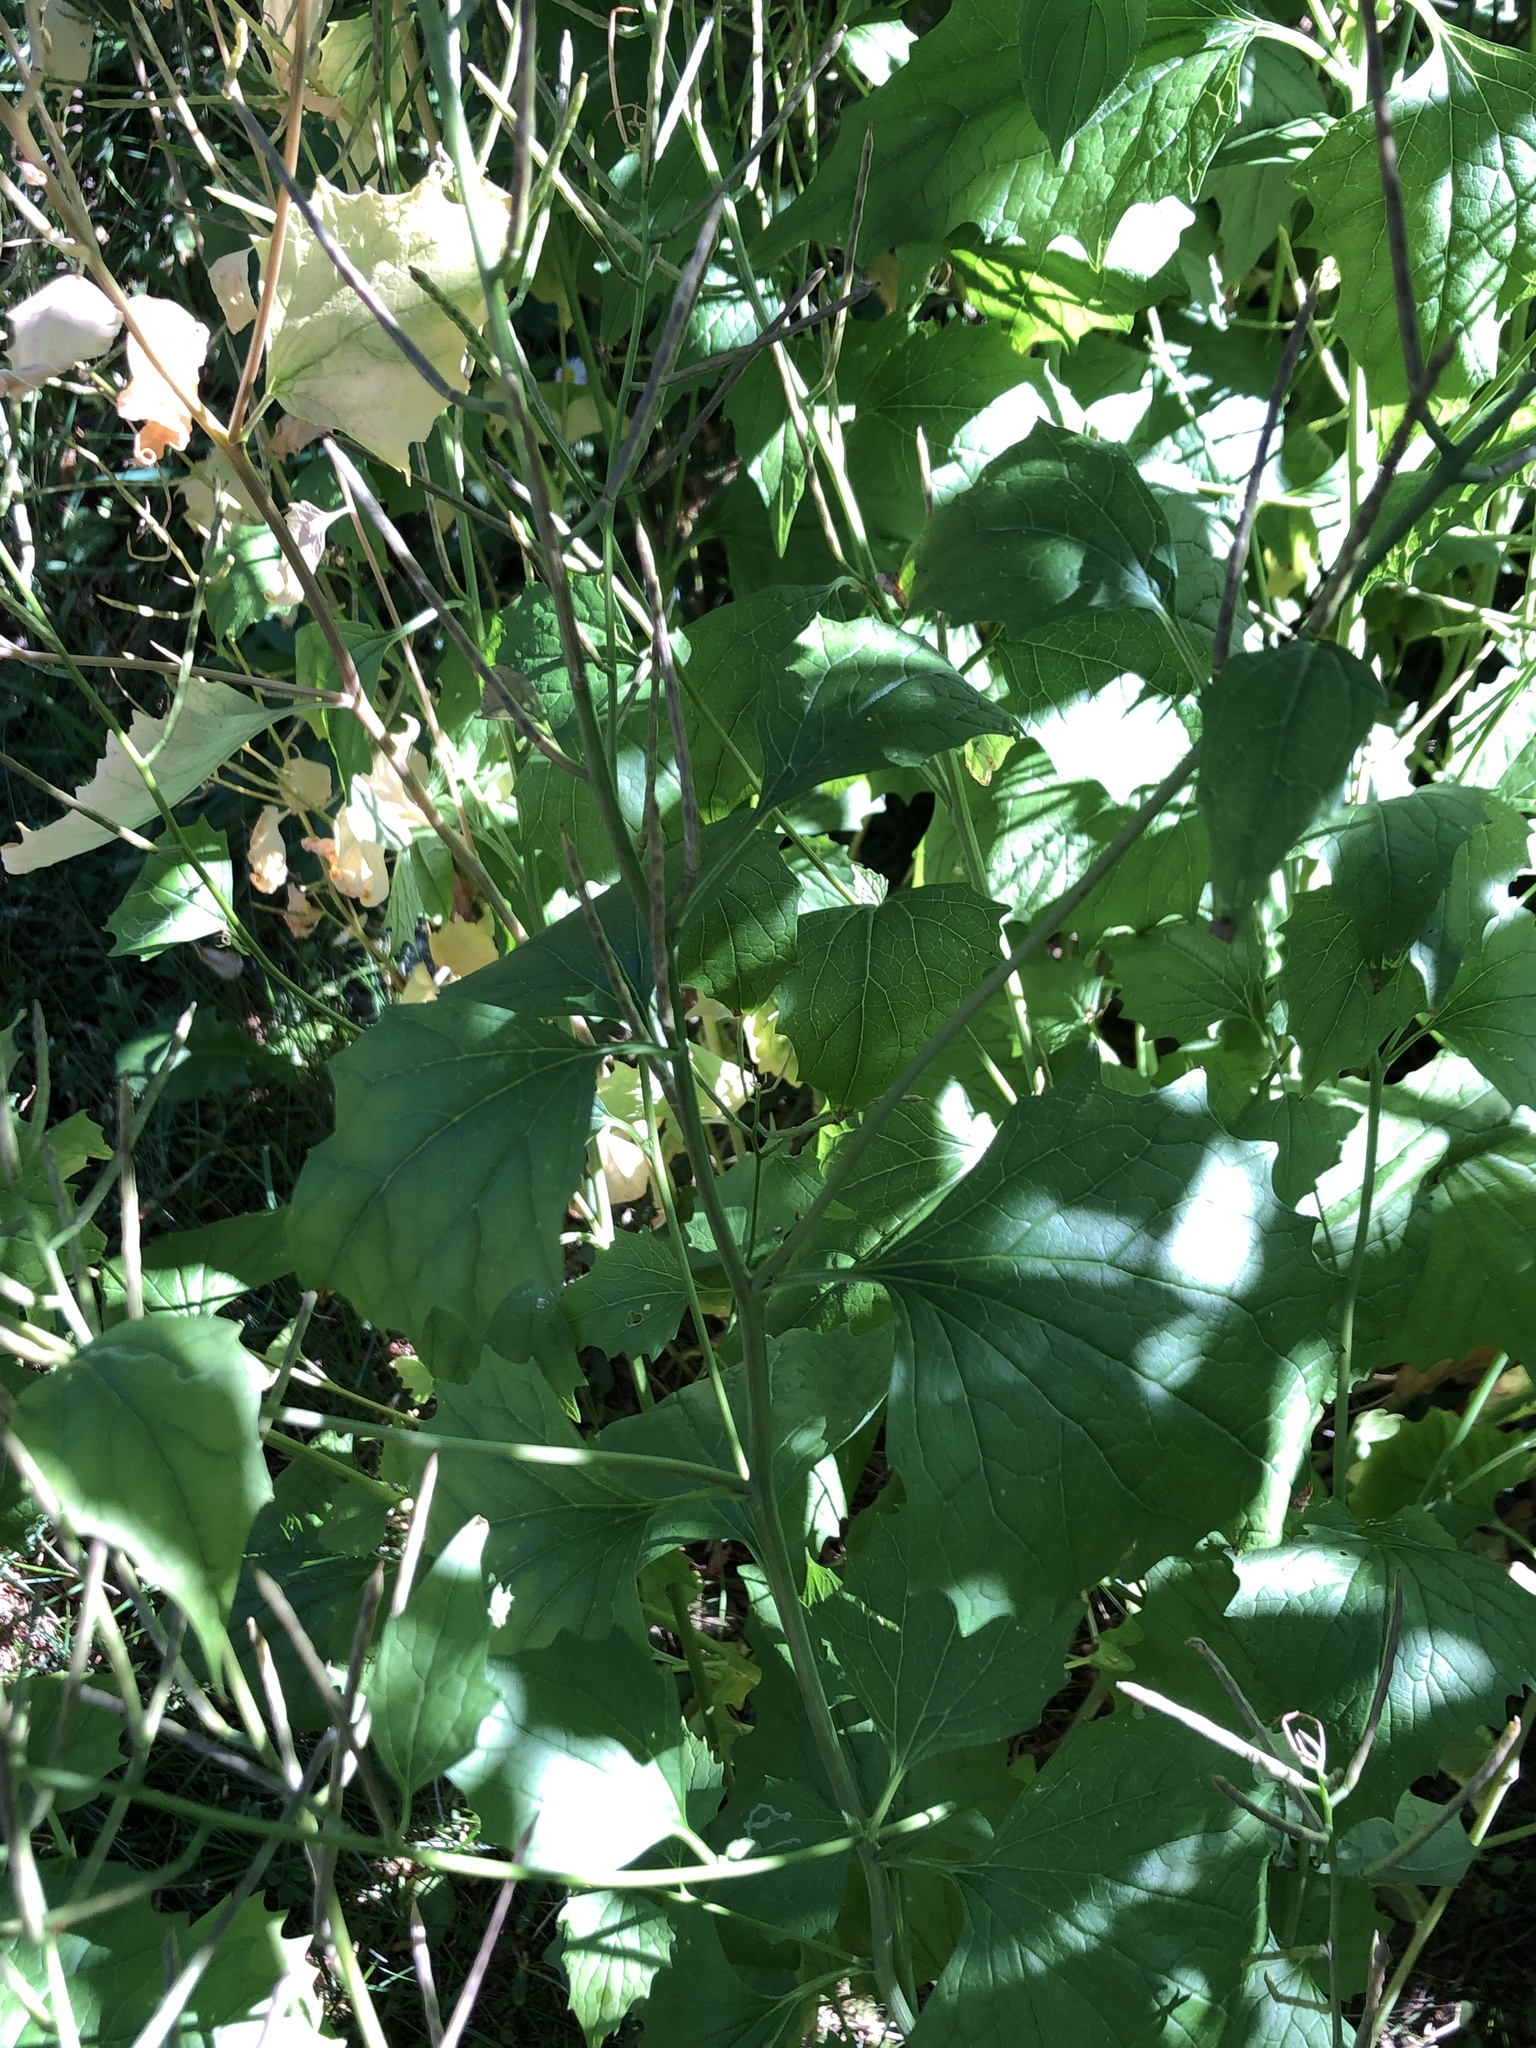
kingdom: Plantae
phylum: Tracheophyta
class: Magnoliopsida
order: Brassicales
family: Brassicaceae
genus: Alliaria
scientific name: Alliaria petiolata
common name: Garlic mustard
